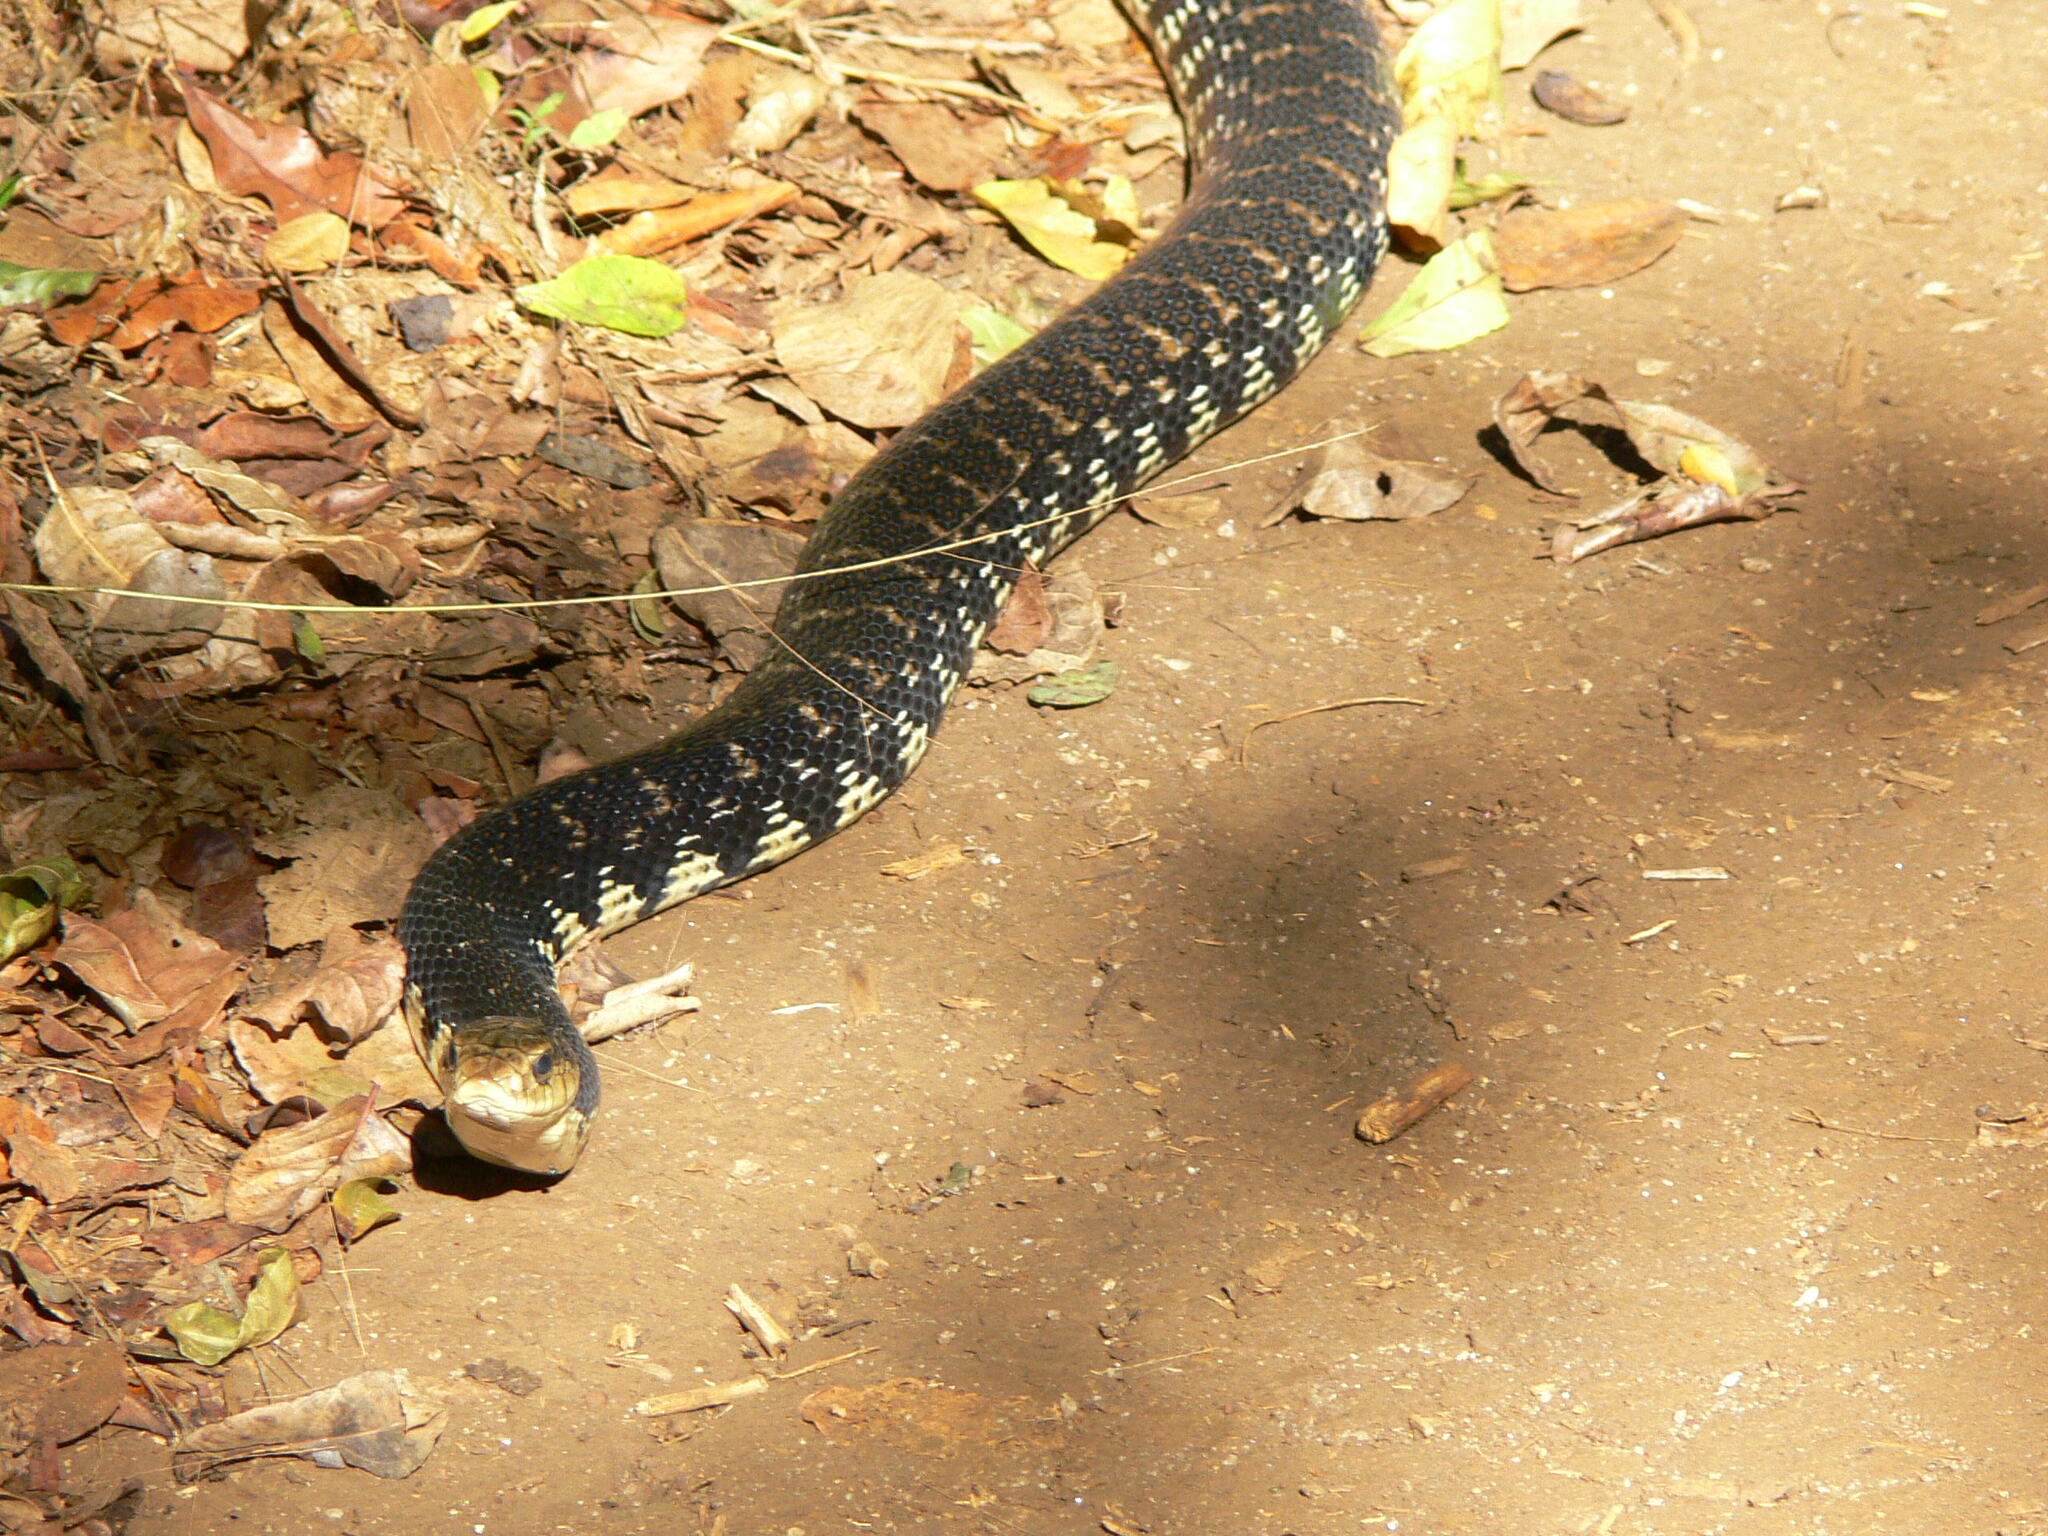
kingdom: Animalia
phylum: Chordata
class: Squamata
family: Pseudoxyrhophiidae
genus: Leioheterodon
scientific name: Leioheterodon madagascariensis
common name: Malagasy giant hognose snake
